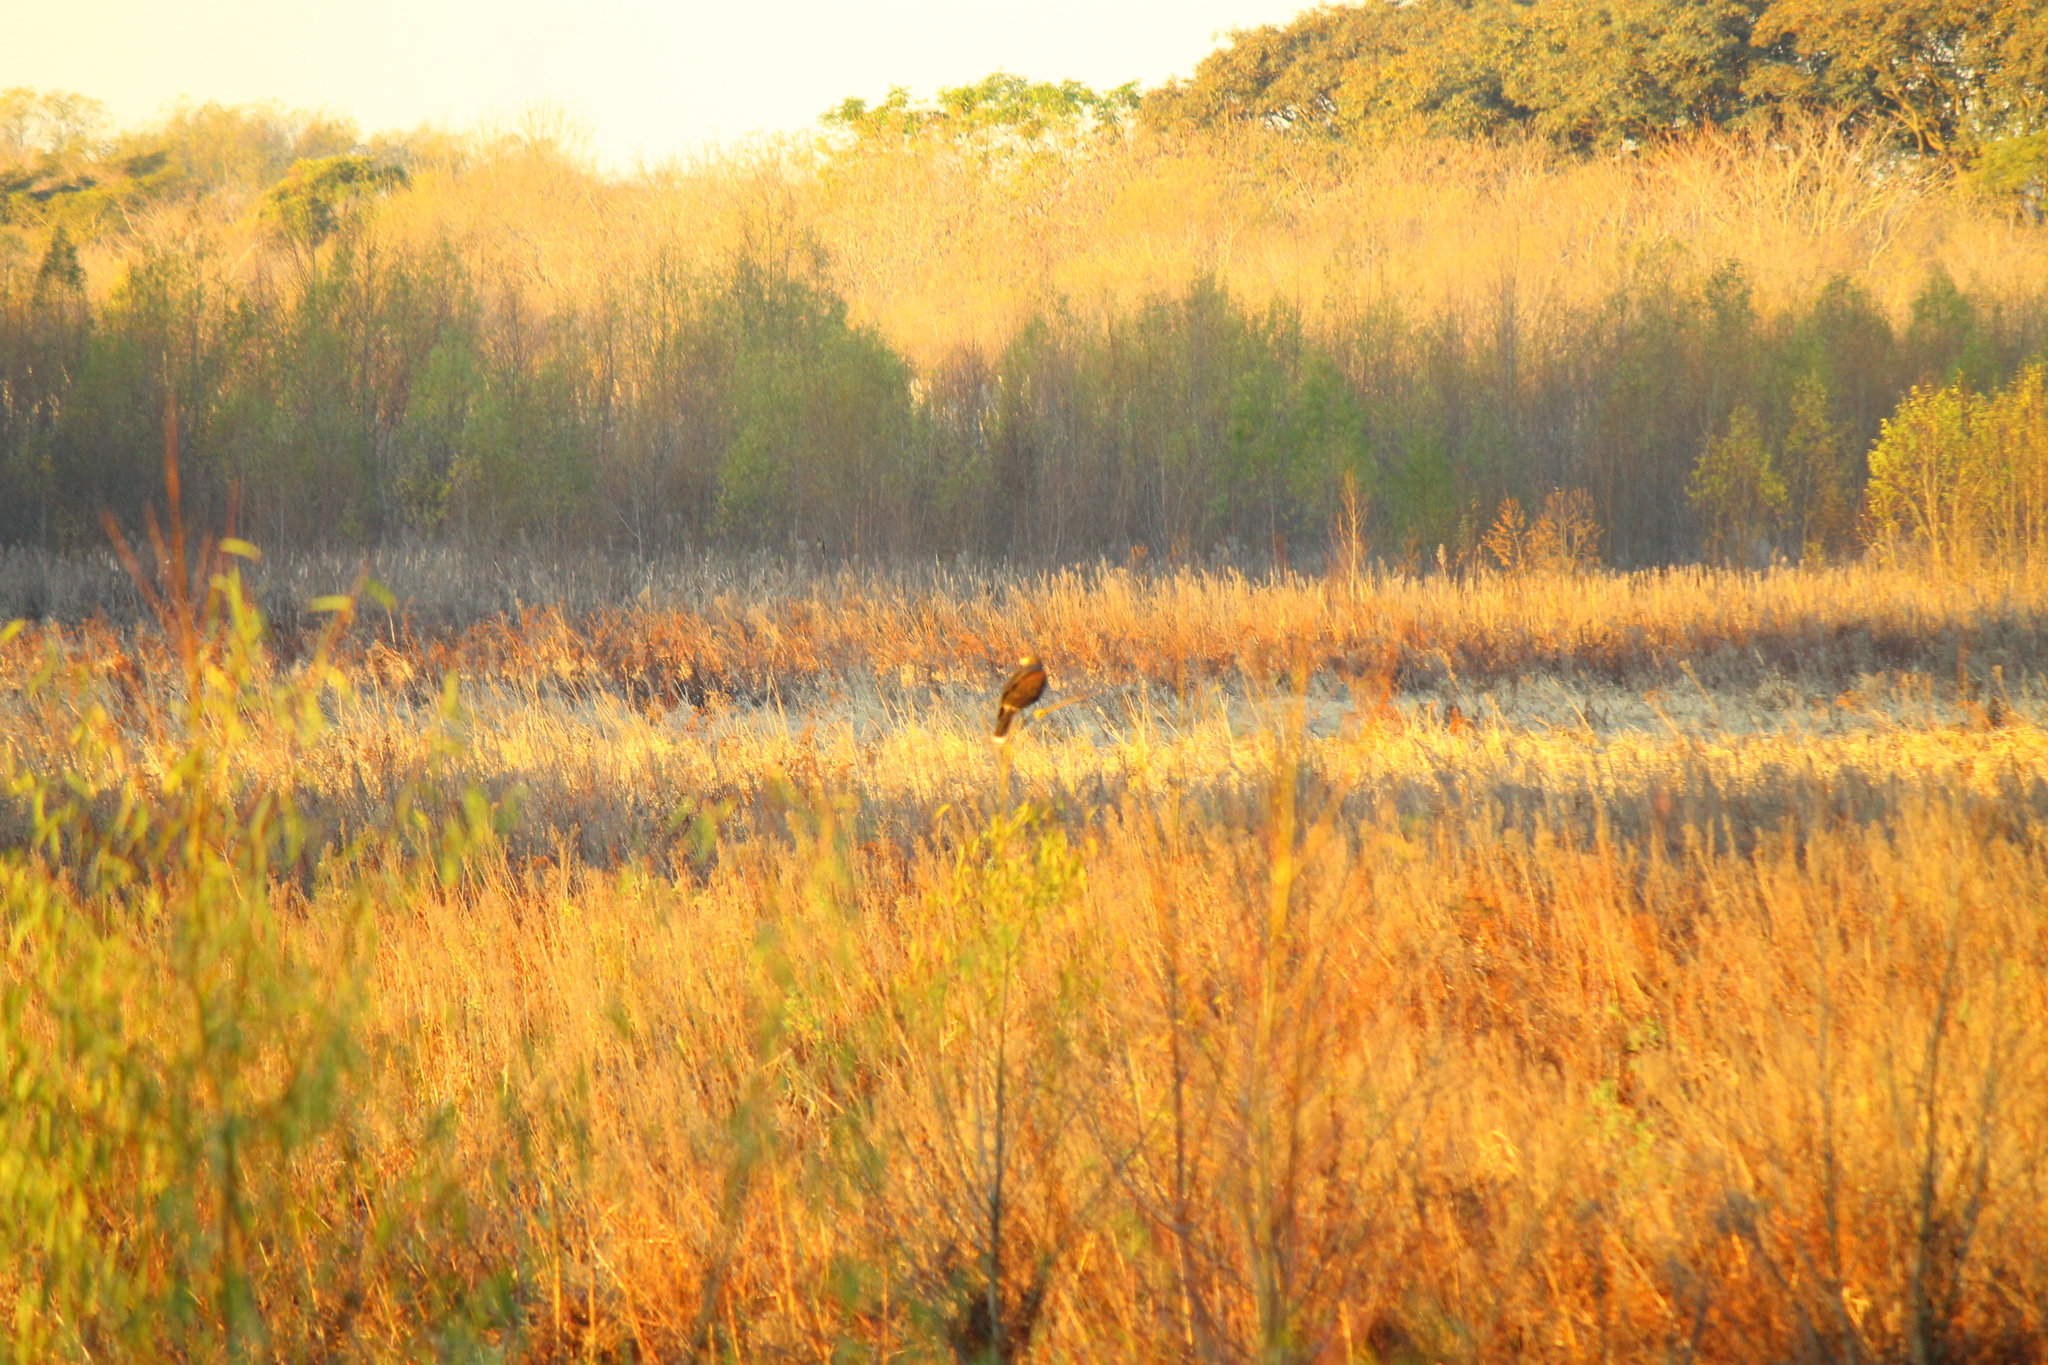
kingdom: Animalia
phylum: Chordata
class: Aves
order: Accipitriformes
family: Accipitridae
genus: Parabuteo
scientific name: Parabuteo unicinctus
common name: Harris's hawk
